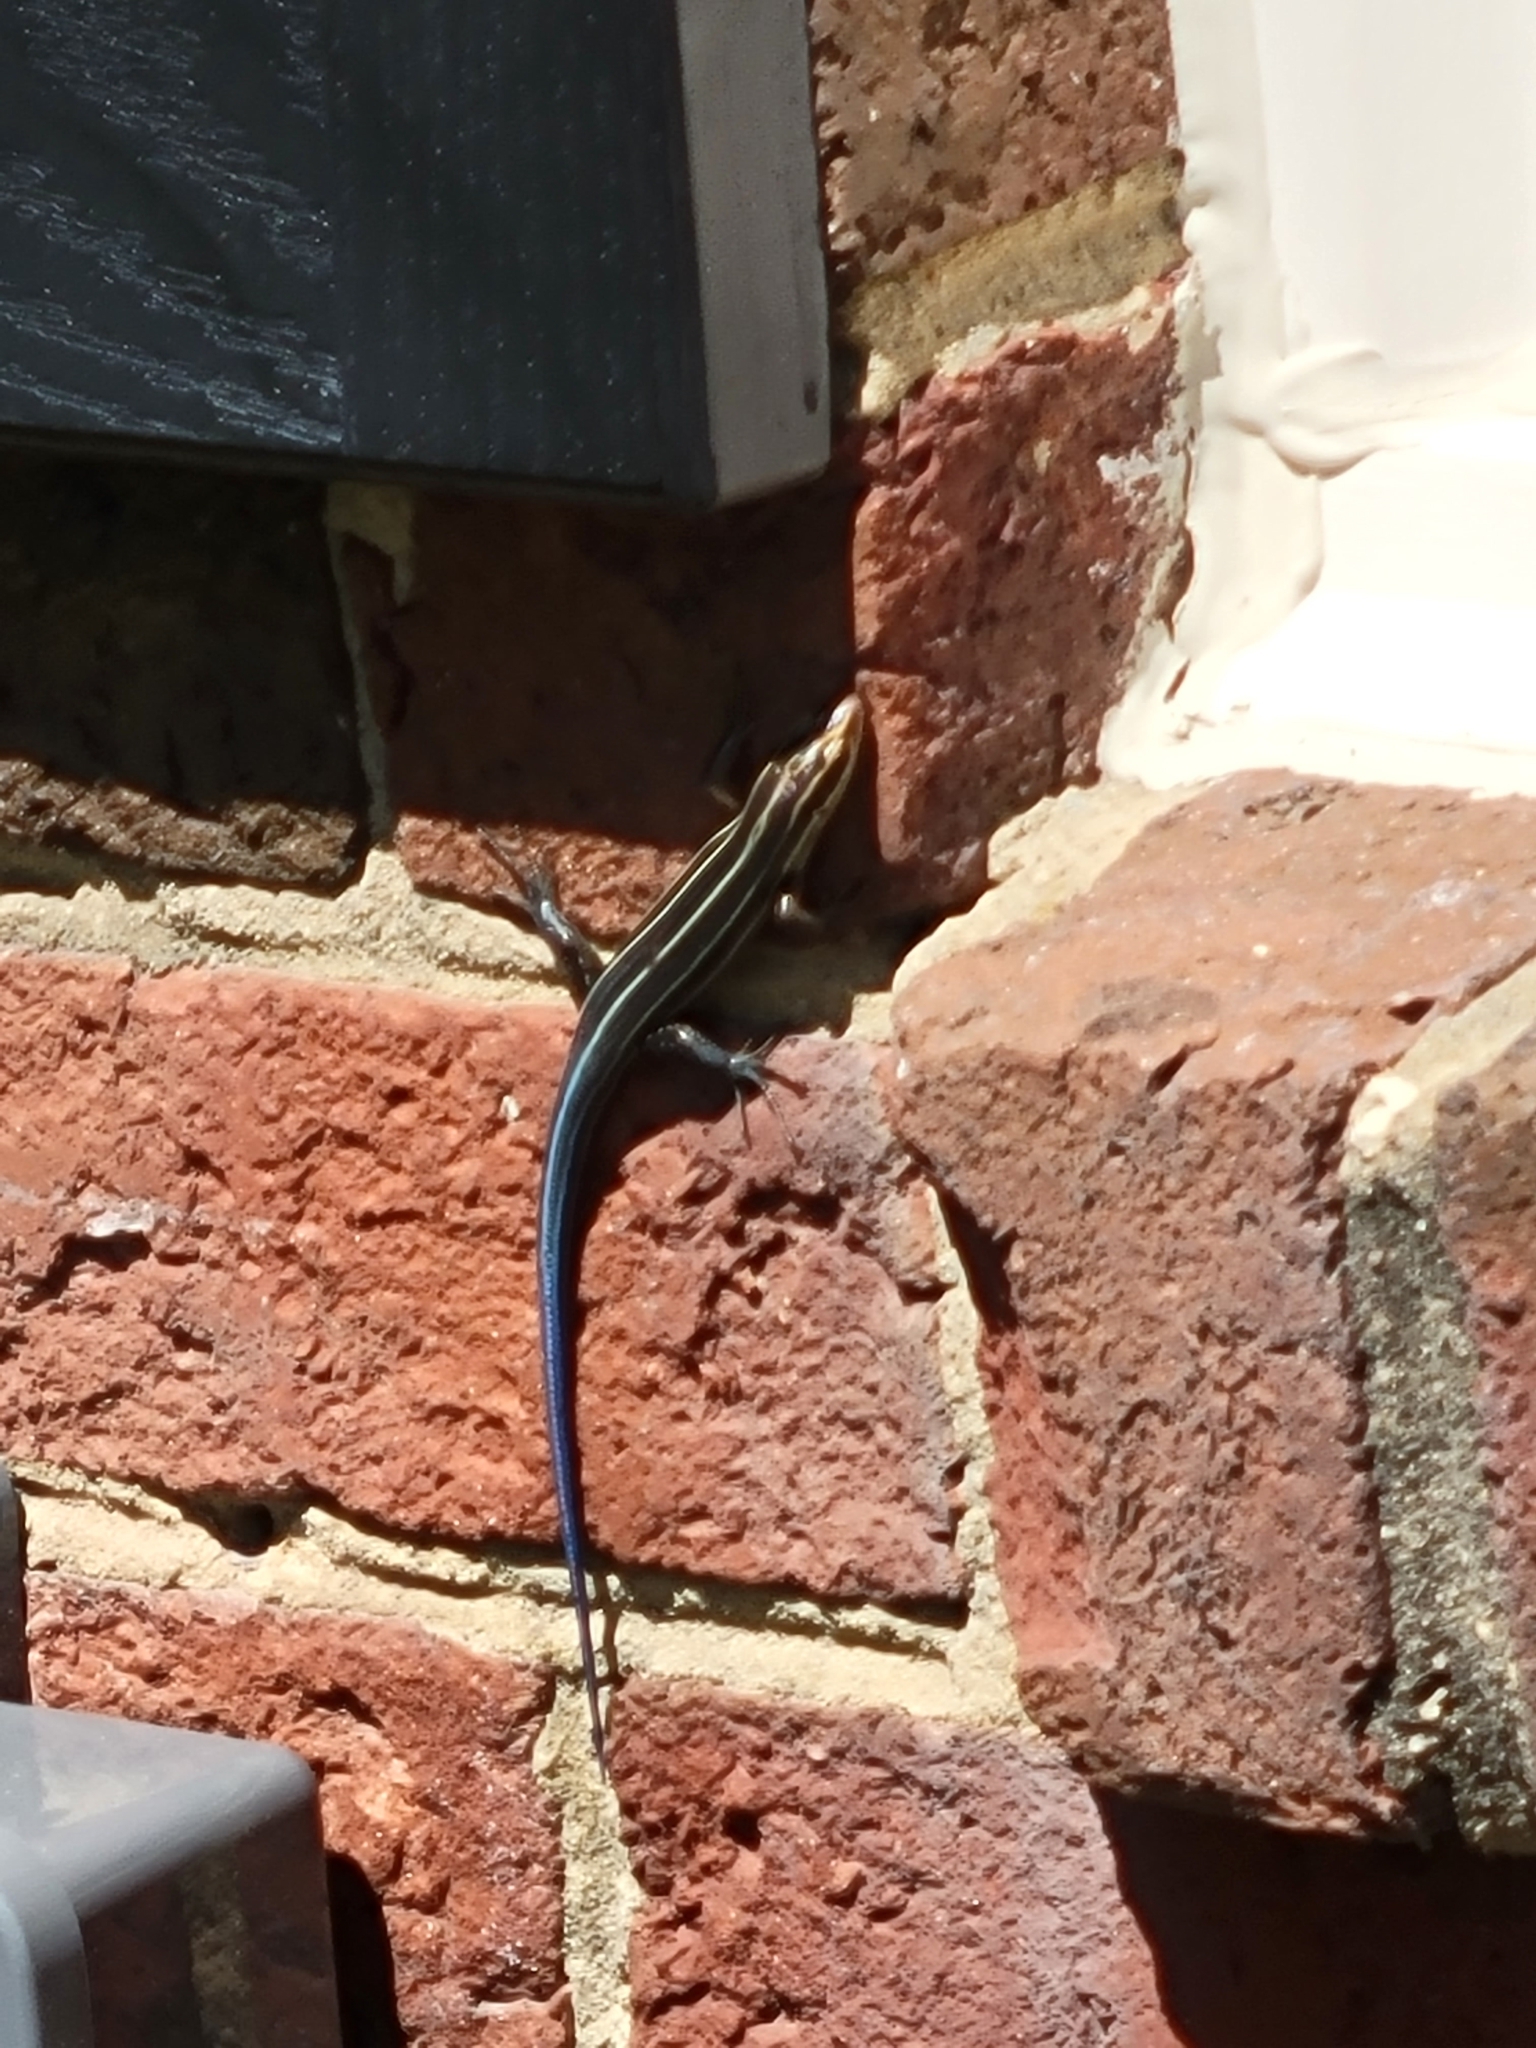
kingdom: Animalia
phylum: Chordata
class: Squamata
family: Scincidae
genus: Plestiodon
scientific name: Plestiodon laticeps
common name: Broadhead skink
